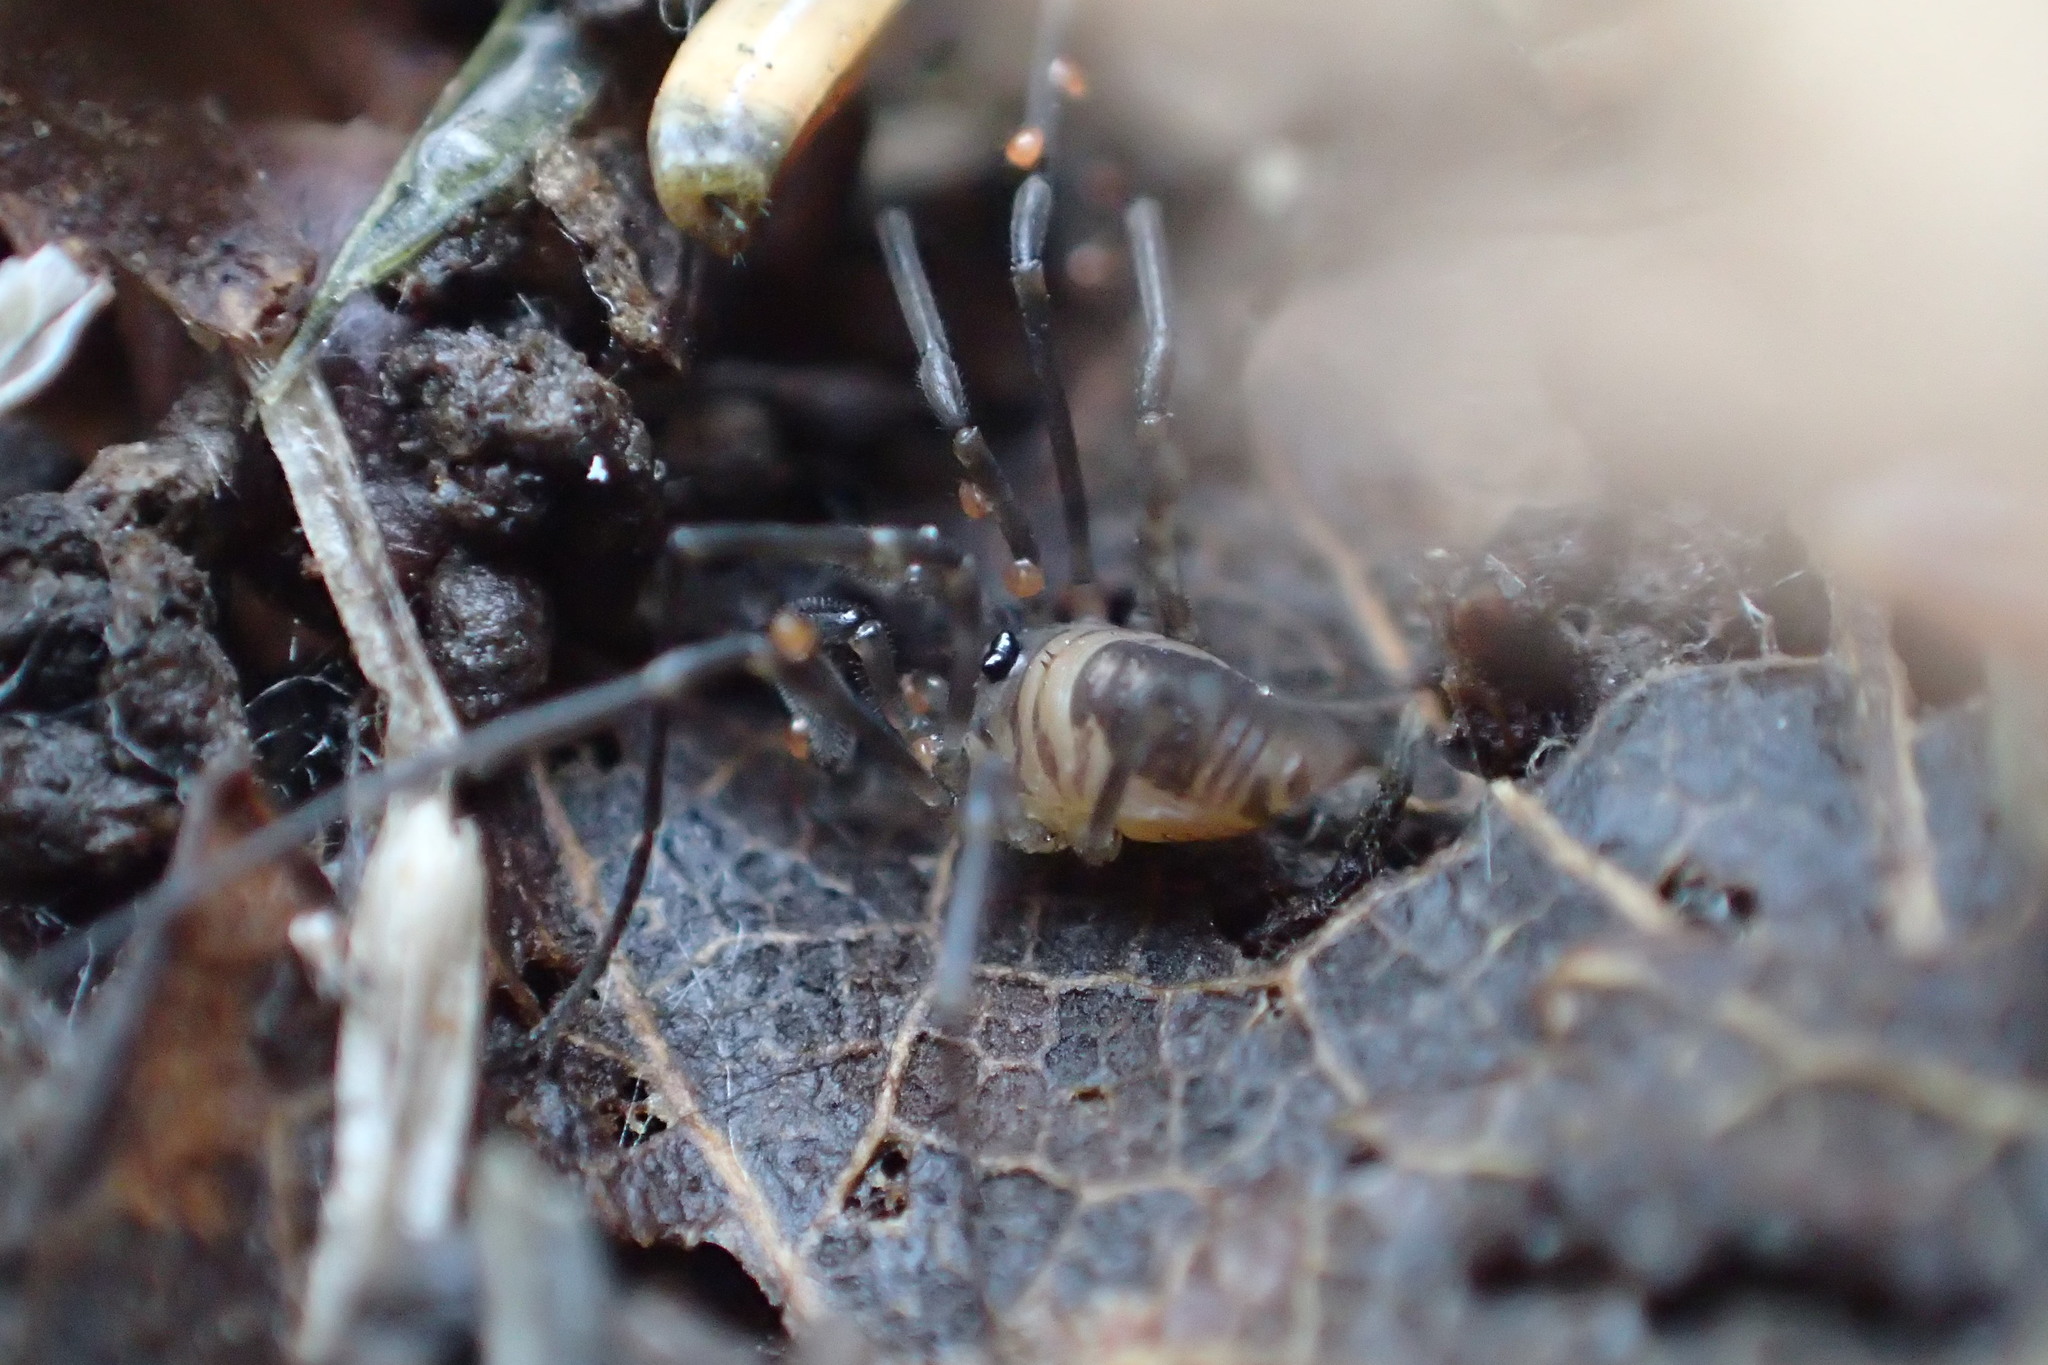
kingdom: Animalia
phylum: Arthropoda
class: Arachnida
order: Opiliones
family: Sabaconidae
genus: Sabacon
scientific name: Sabacon occidentalis
